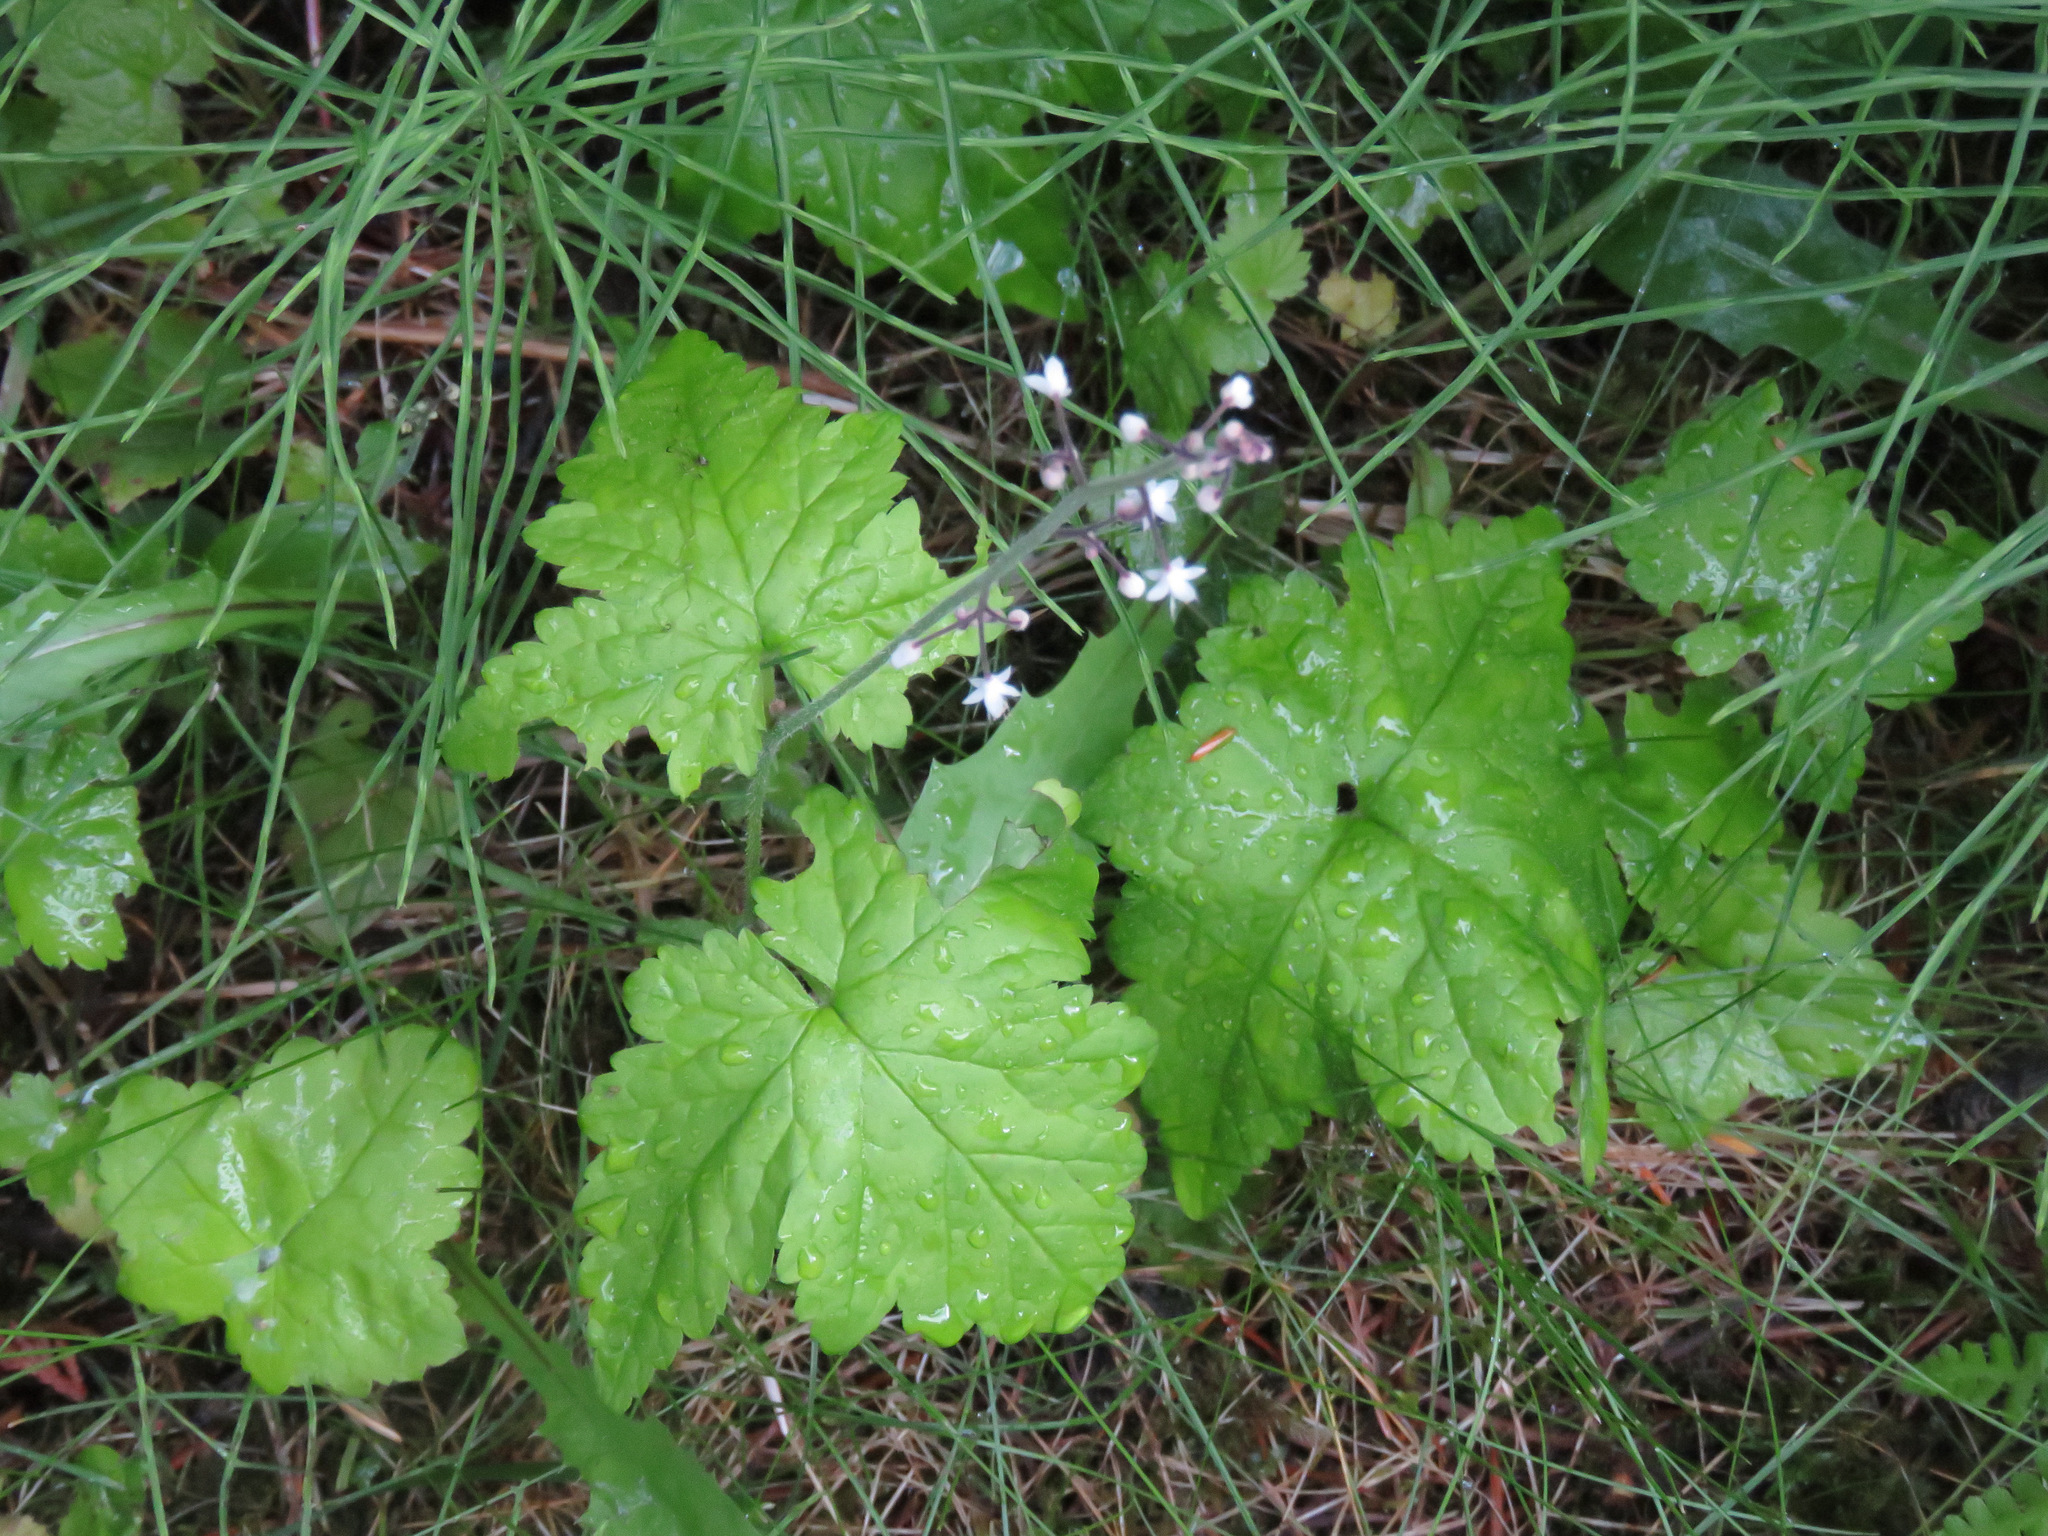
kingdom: Plantae
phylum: Tracheophyta
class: Magnoliopsida
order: Saxifragales
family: Saxifragaceae
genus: Tiarella
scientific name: Tiarella trifoliata
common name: Sugar-scoop
